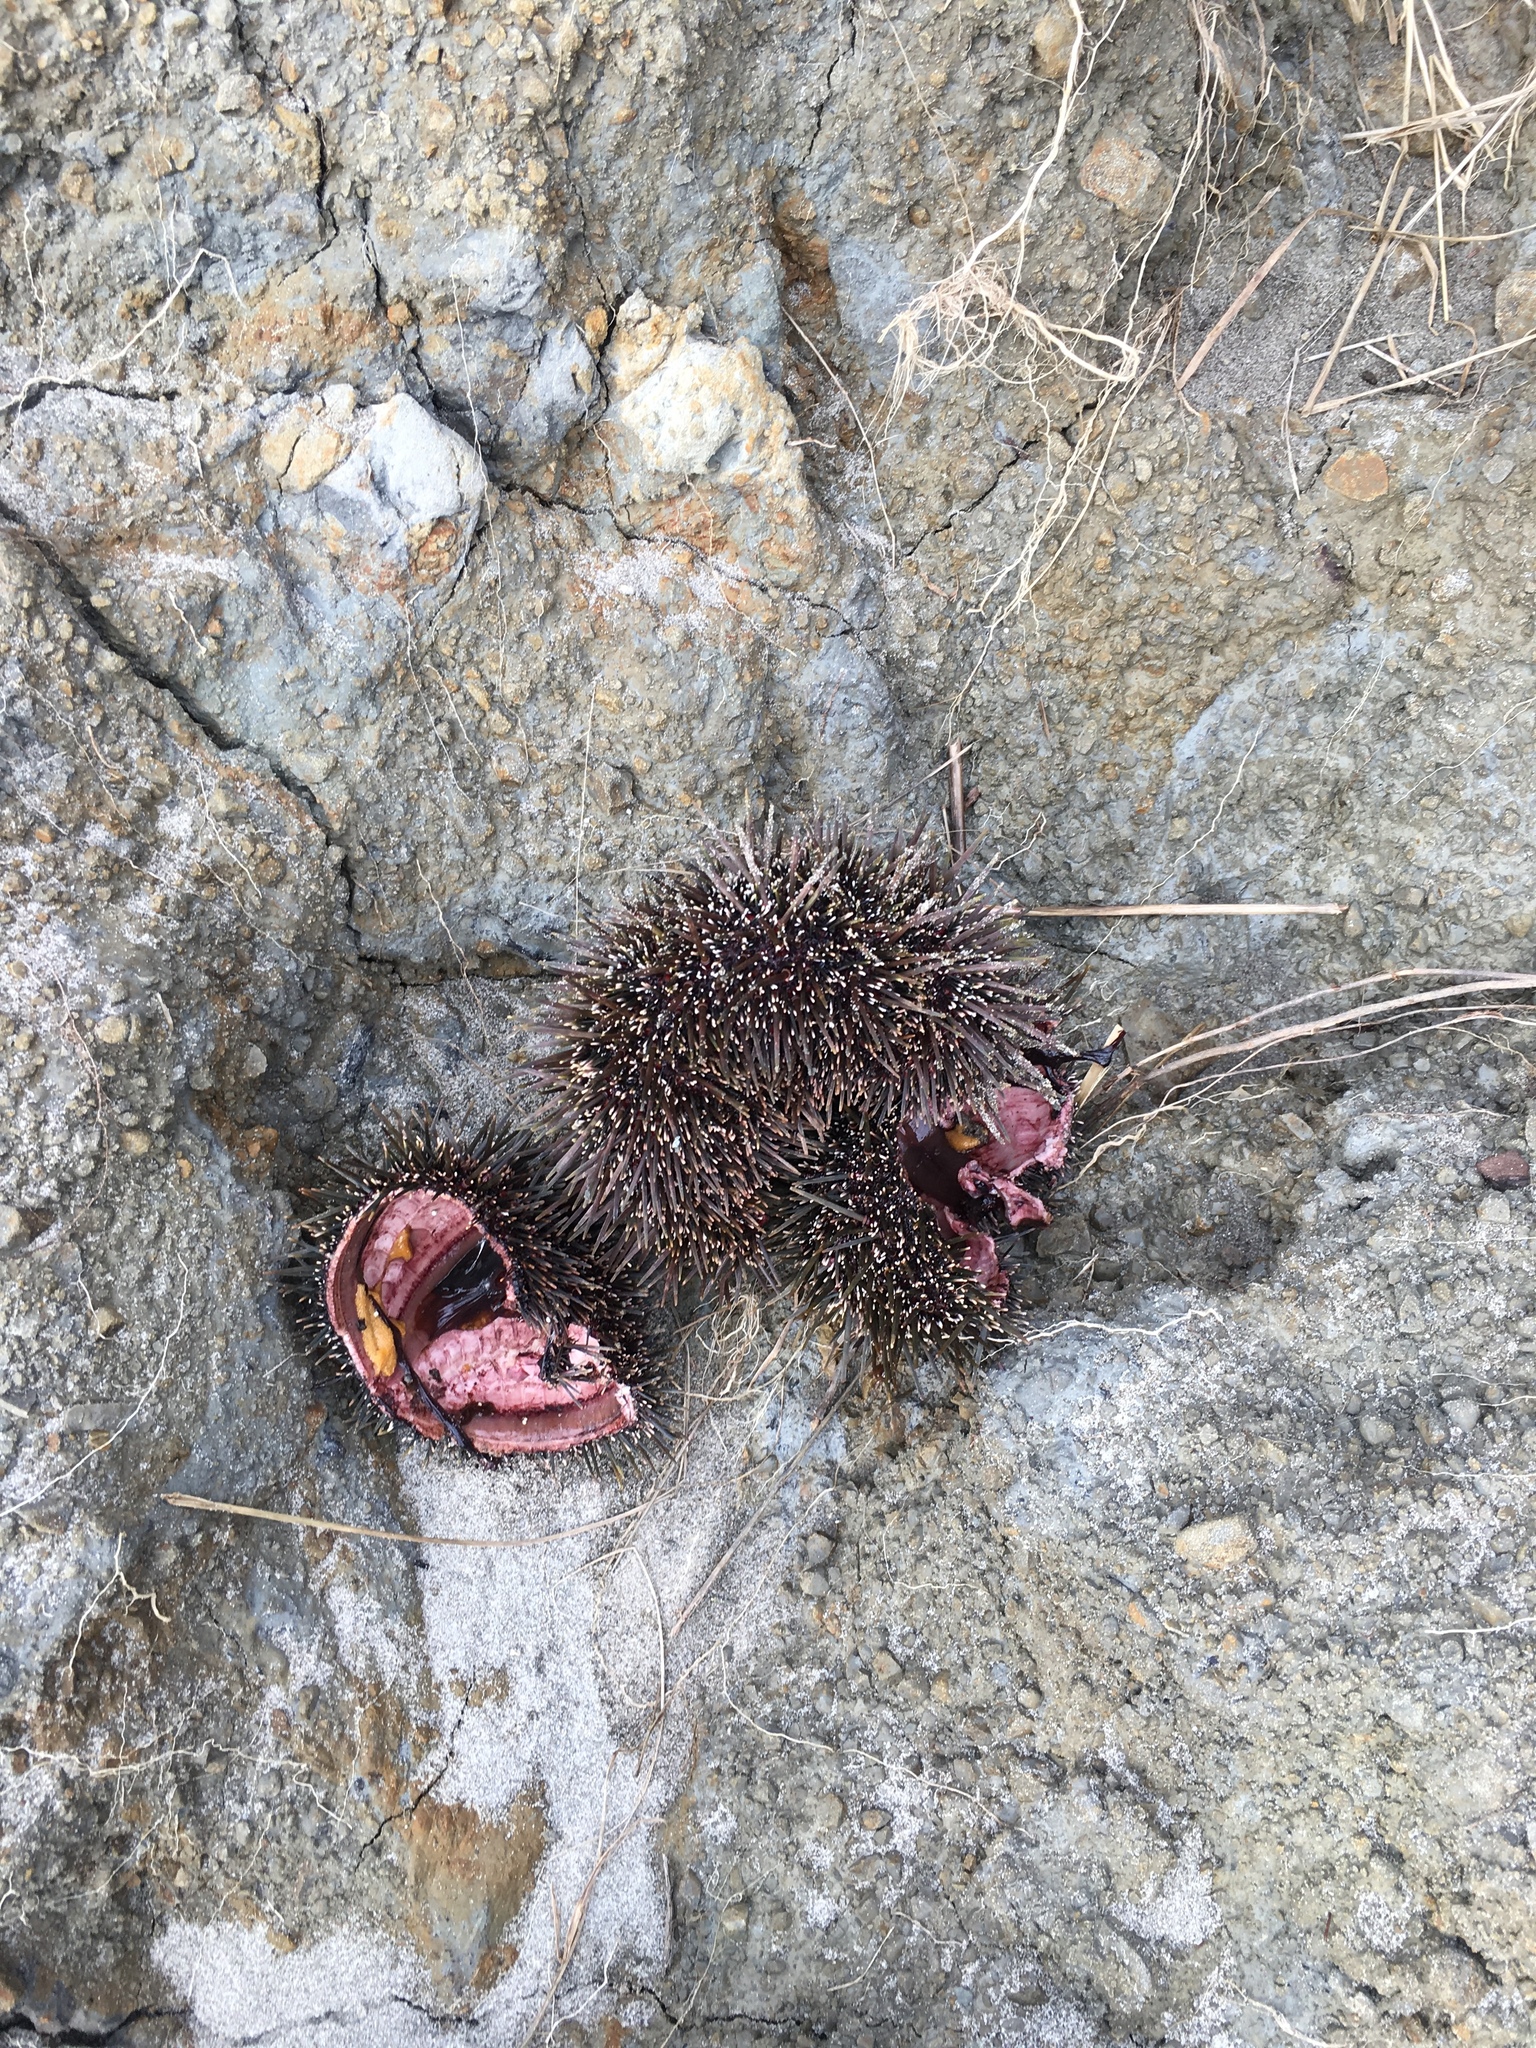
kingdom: Animalia
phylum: Echinodermata
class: Echinoidea
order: Camarodonta
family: Echinometridae
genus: Evechinus
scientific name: Evechinus chloroticus
